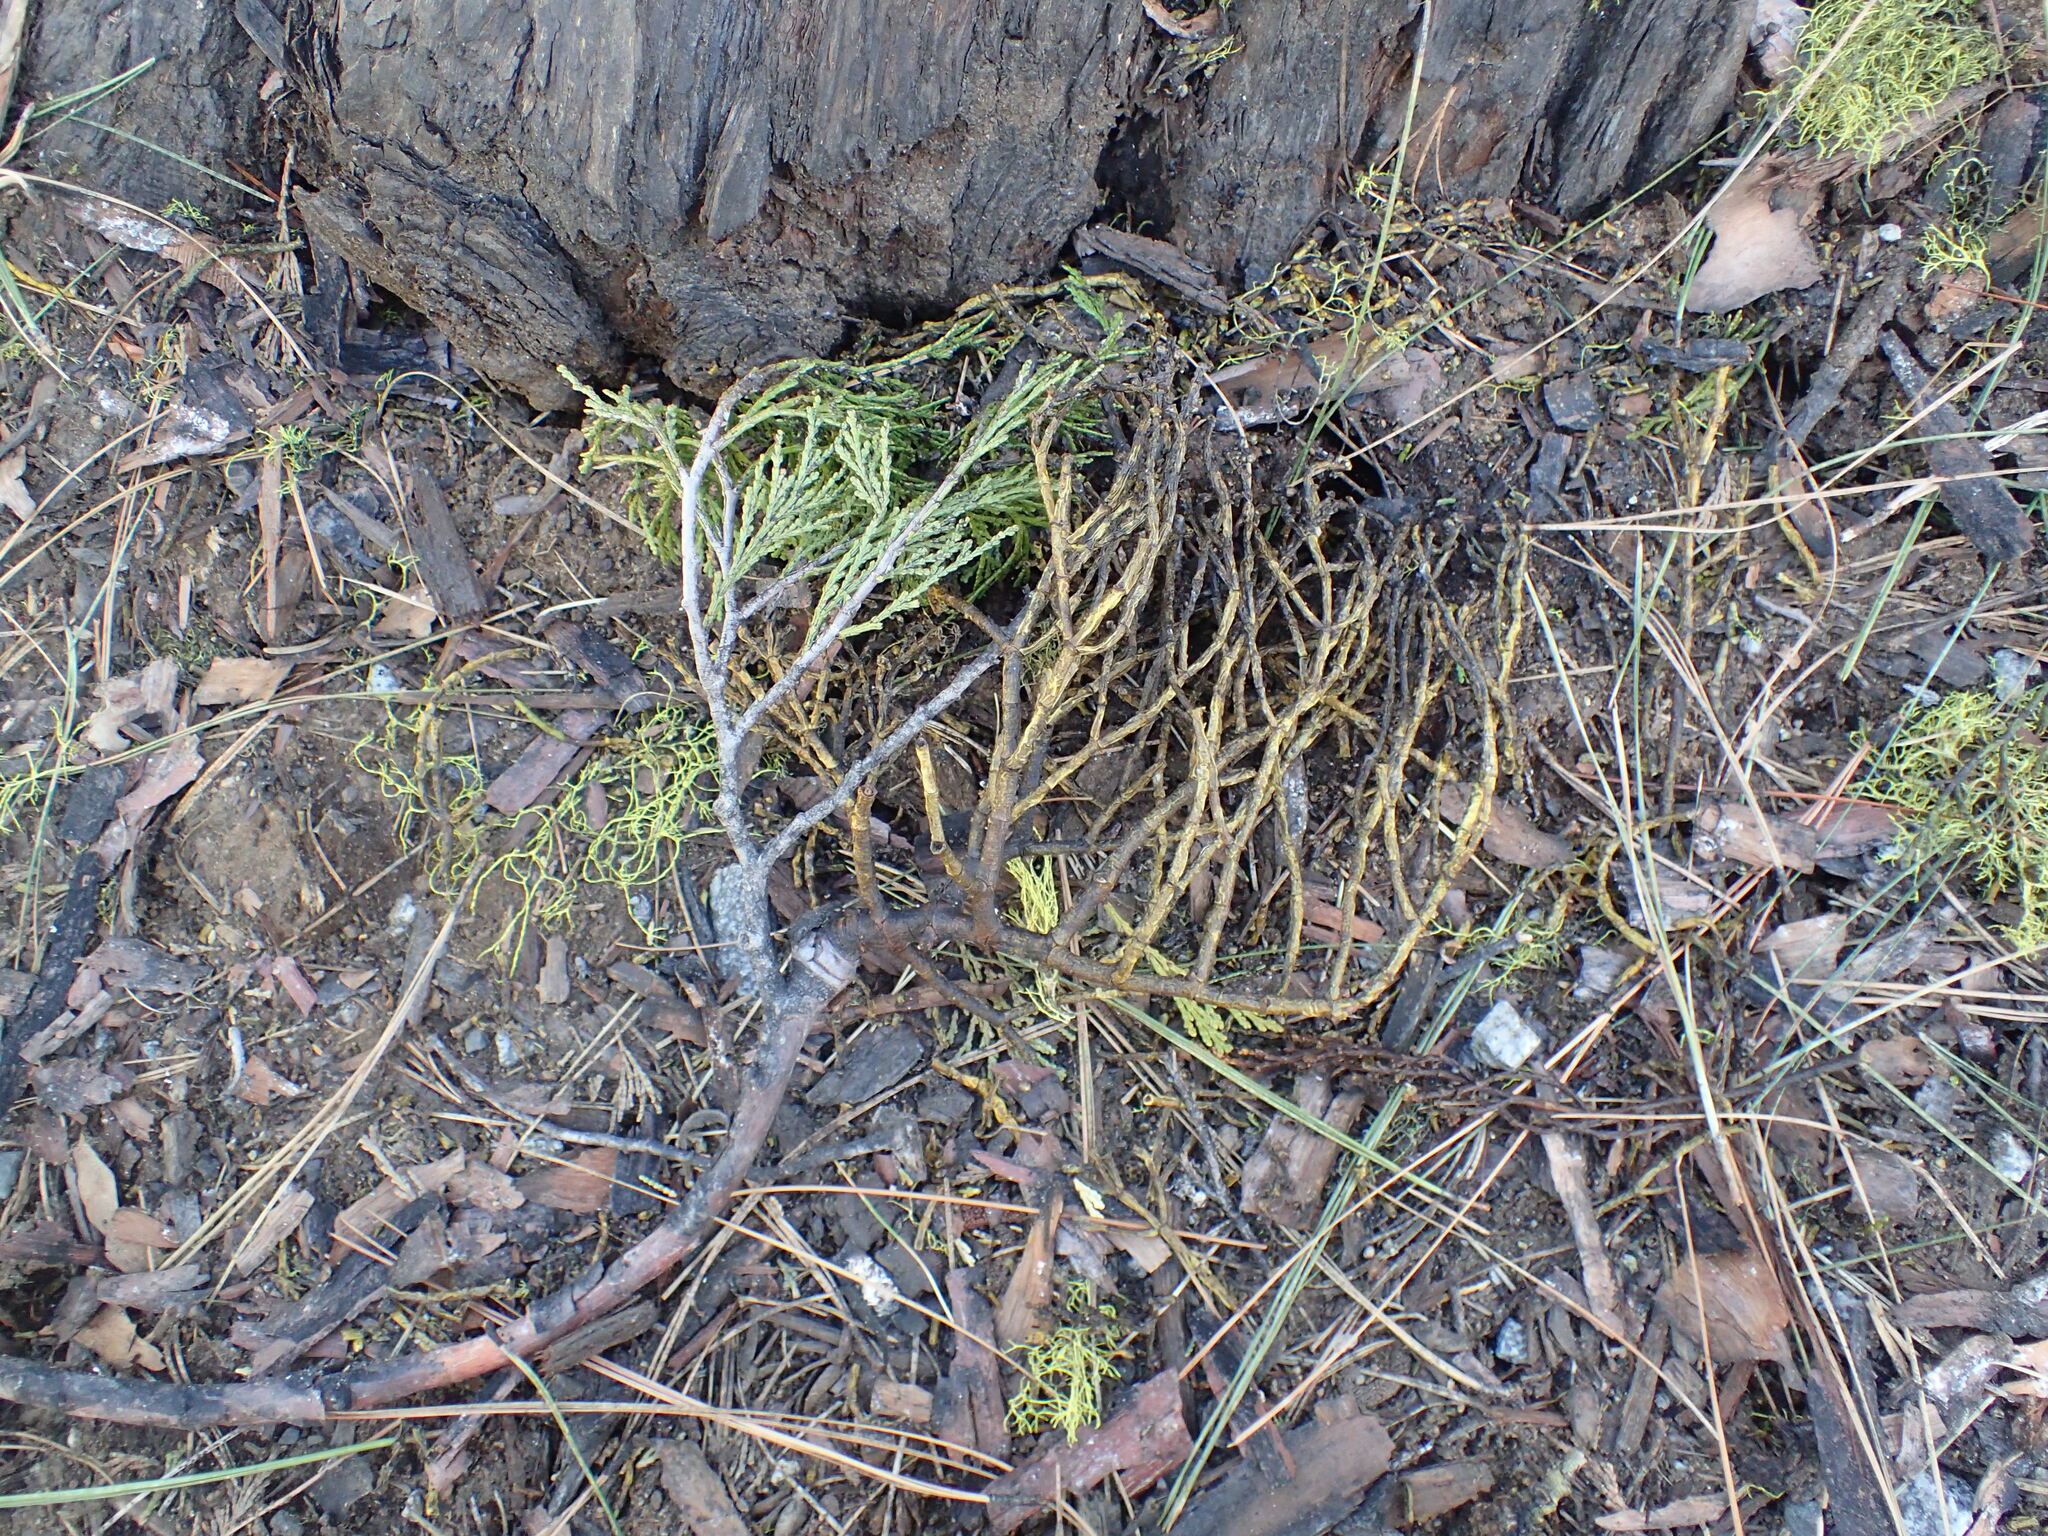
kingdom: Plantae
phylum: Tracheophyta
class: Magnoliopsida
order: Santalales
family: Viscaceae
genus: Phoradendron
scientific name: Phoradendron libocedri
